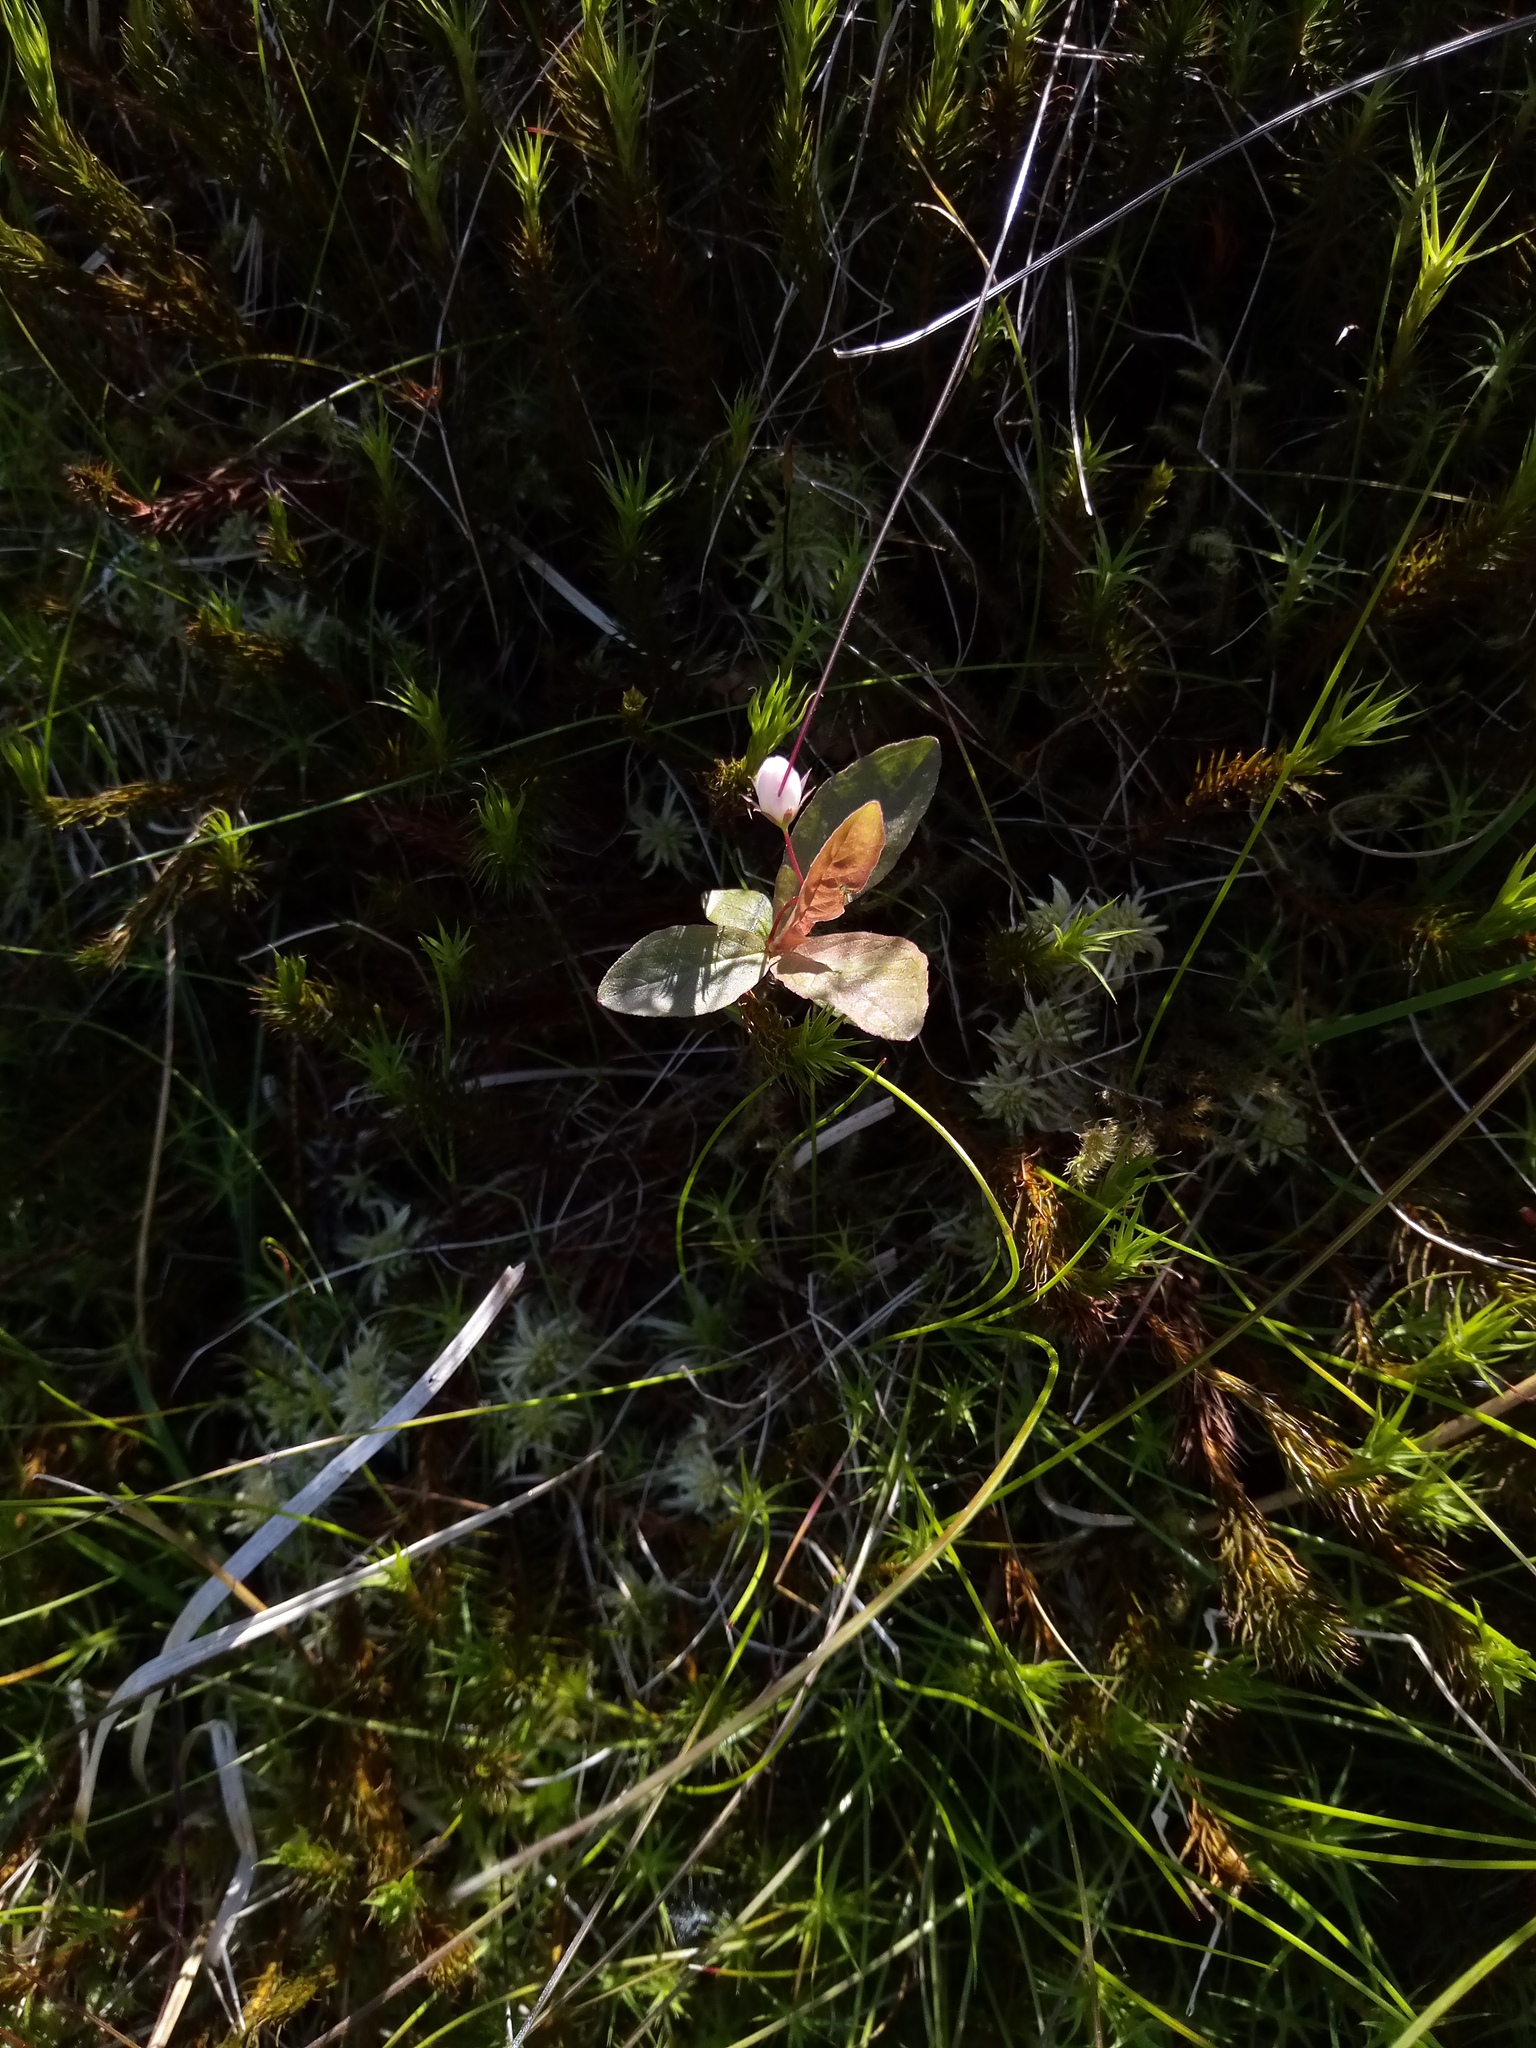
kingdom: Plantae
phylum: Tracheophyta
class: Magnoliopsida
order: Ericales
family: Primulaceae
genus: Lysimachia
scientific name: Lysimachia europaea
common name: Arctic starflower
